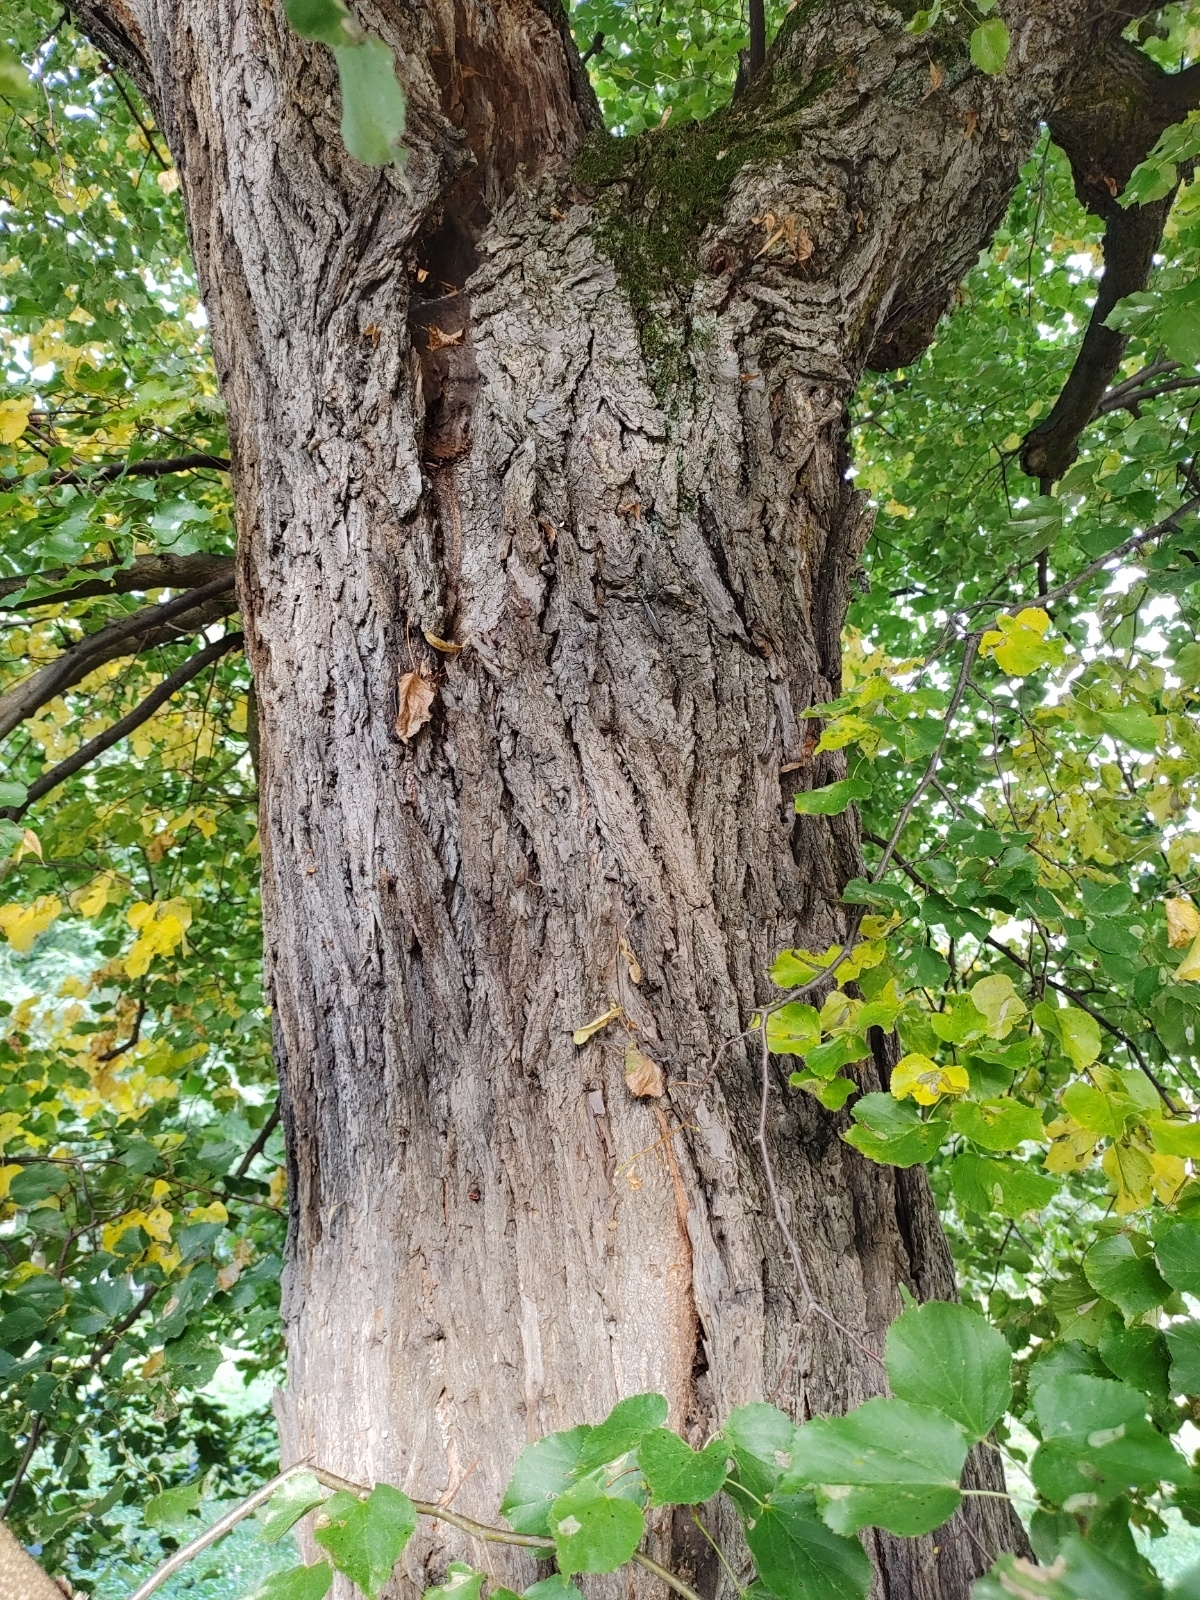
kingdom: Plantae
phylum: Tracheophyta
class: Magnoliopsida
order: Malvales
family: Malvaceae
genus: Tilia
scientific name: Tilia cordata
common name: Small-leaved lime
